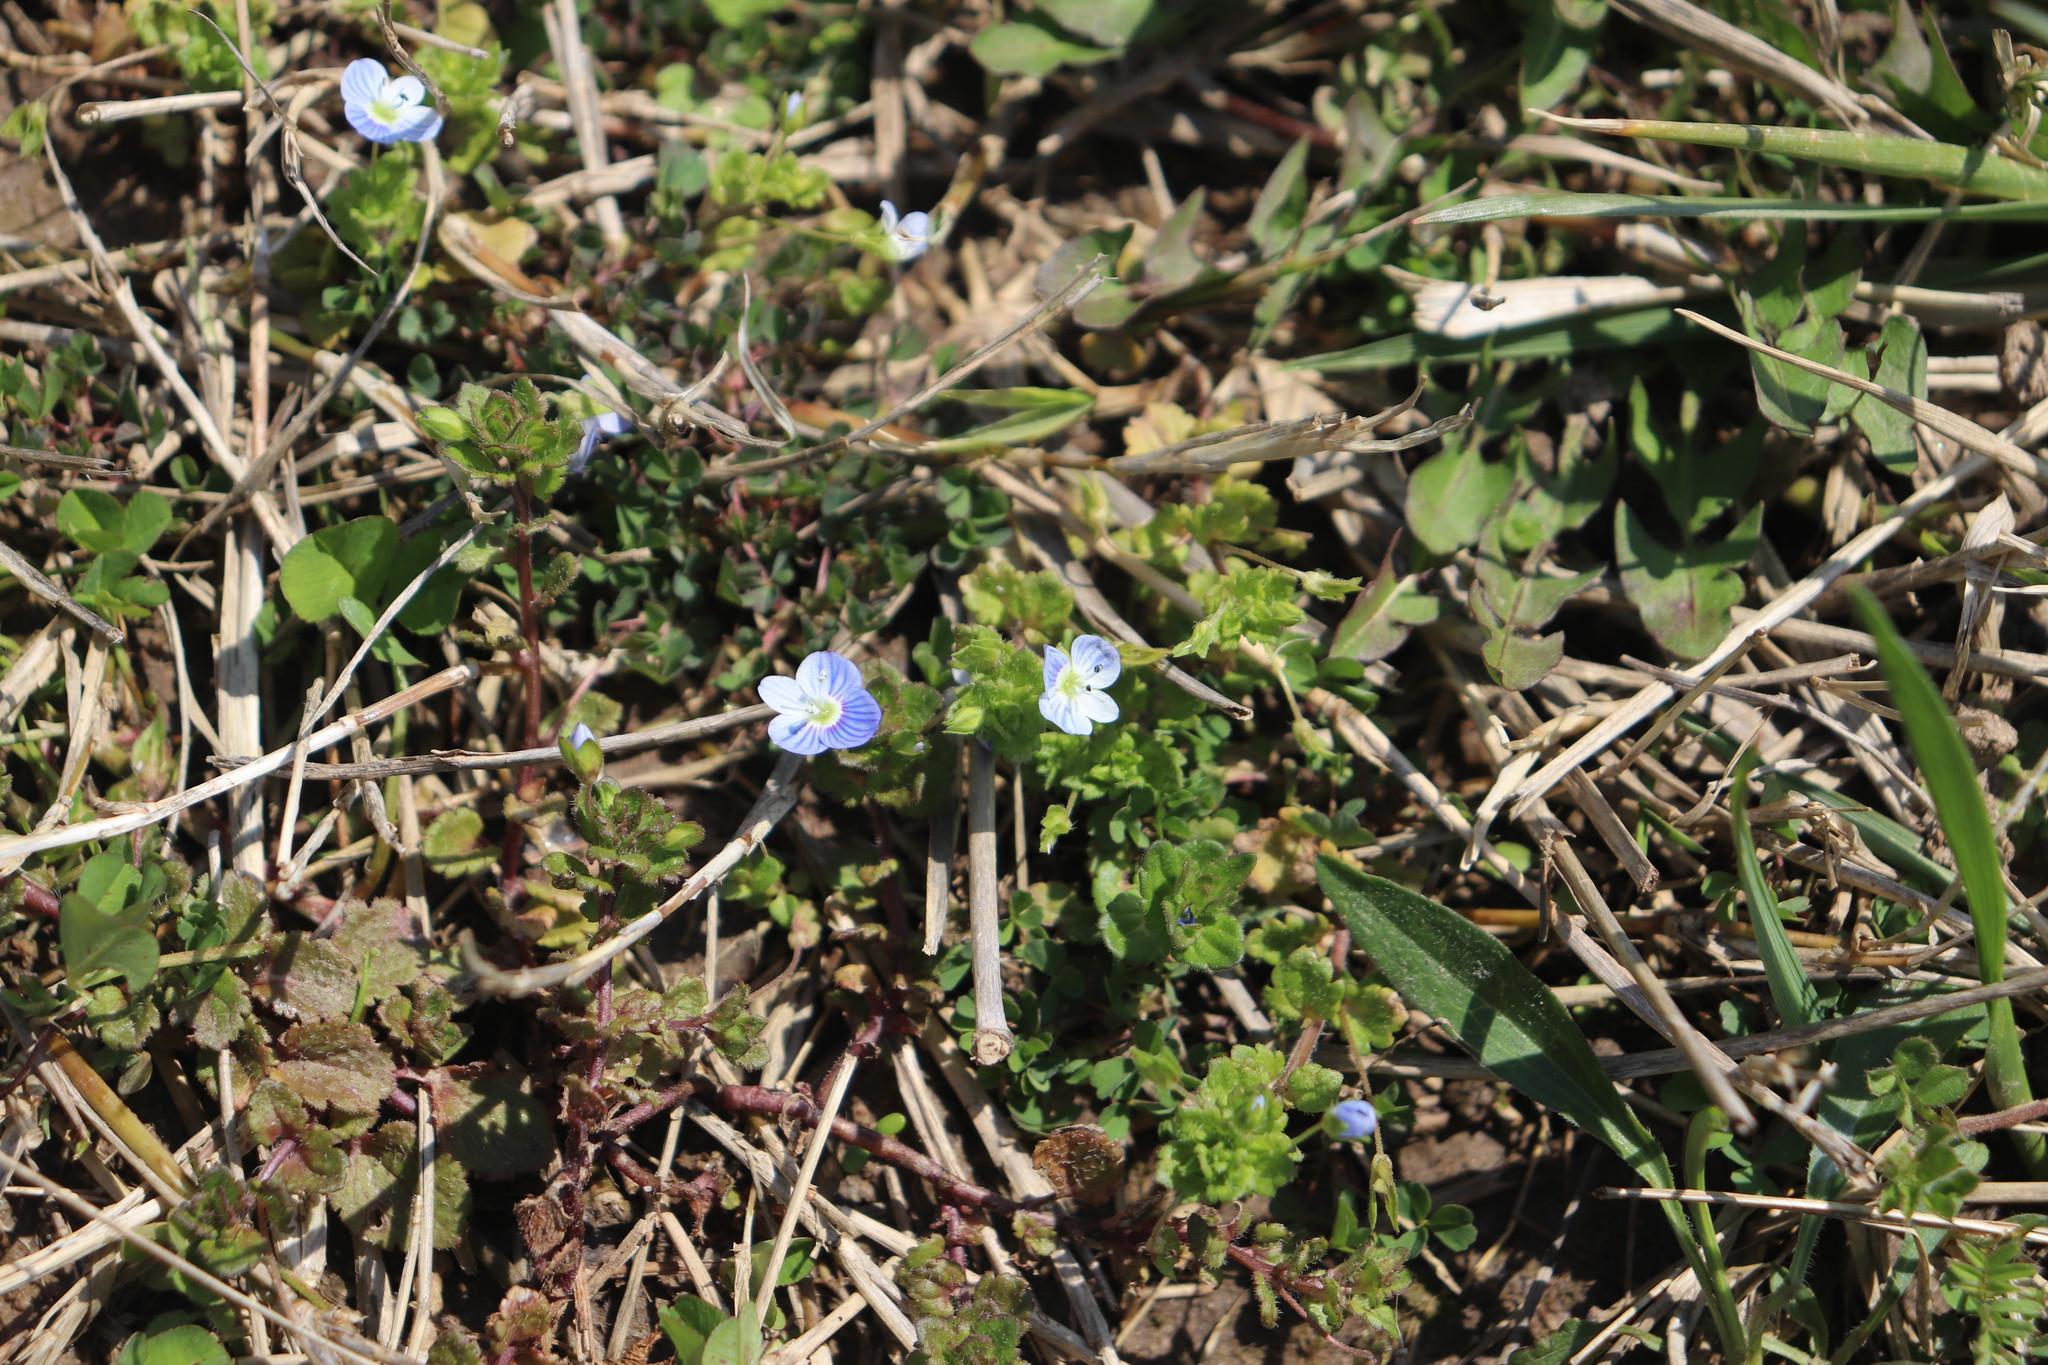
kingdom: Plantae
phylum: Tracheophyta
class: Magnoliopsida
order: Lamiales
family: Plantaginaceae
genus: Veronica
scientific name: Veronica persica
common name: Common field-speedwell
